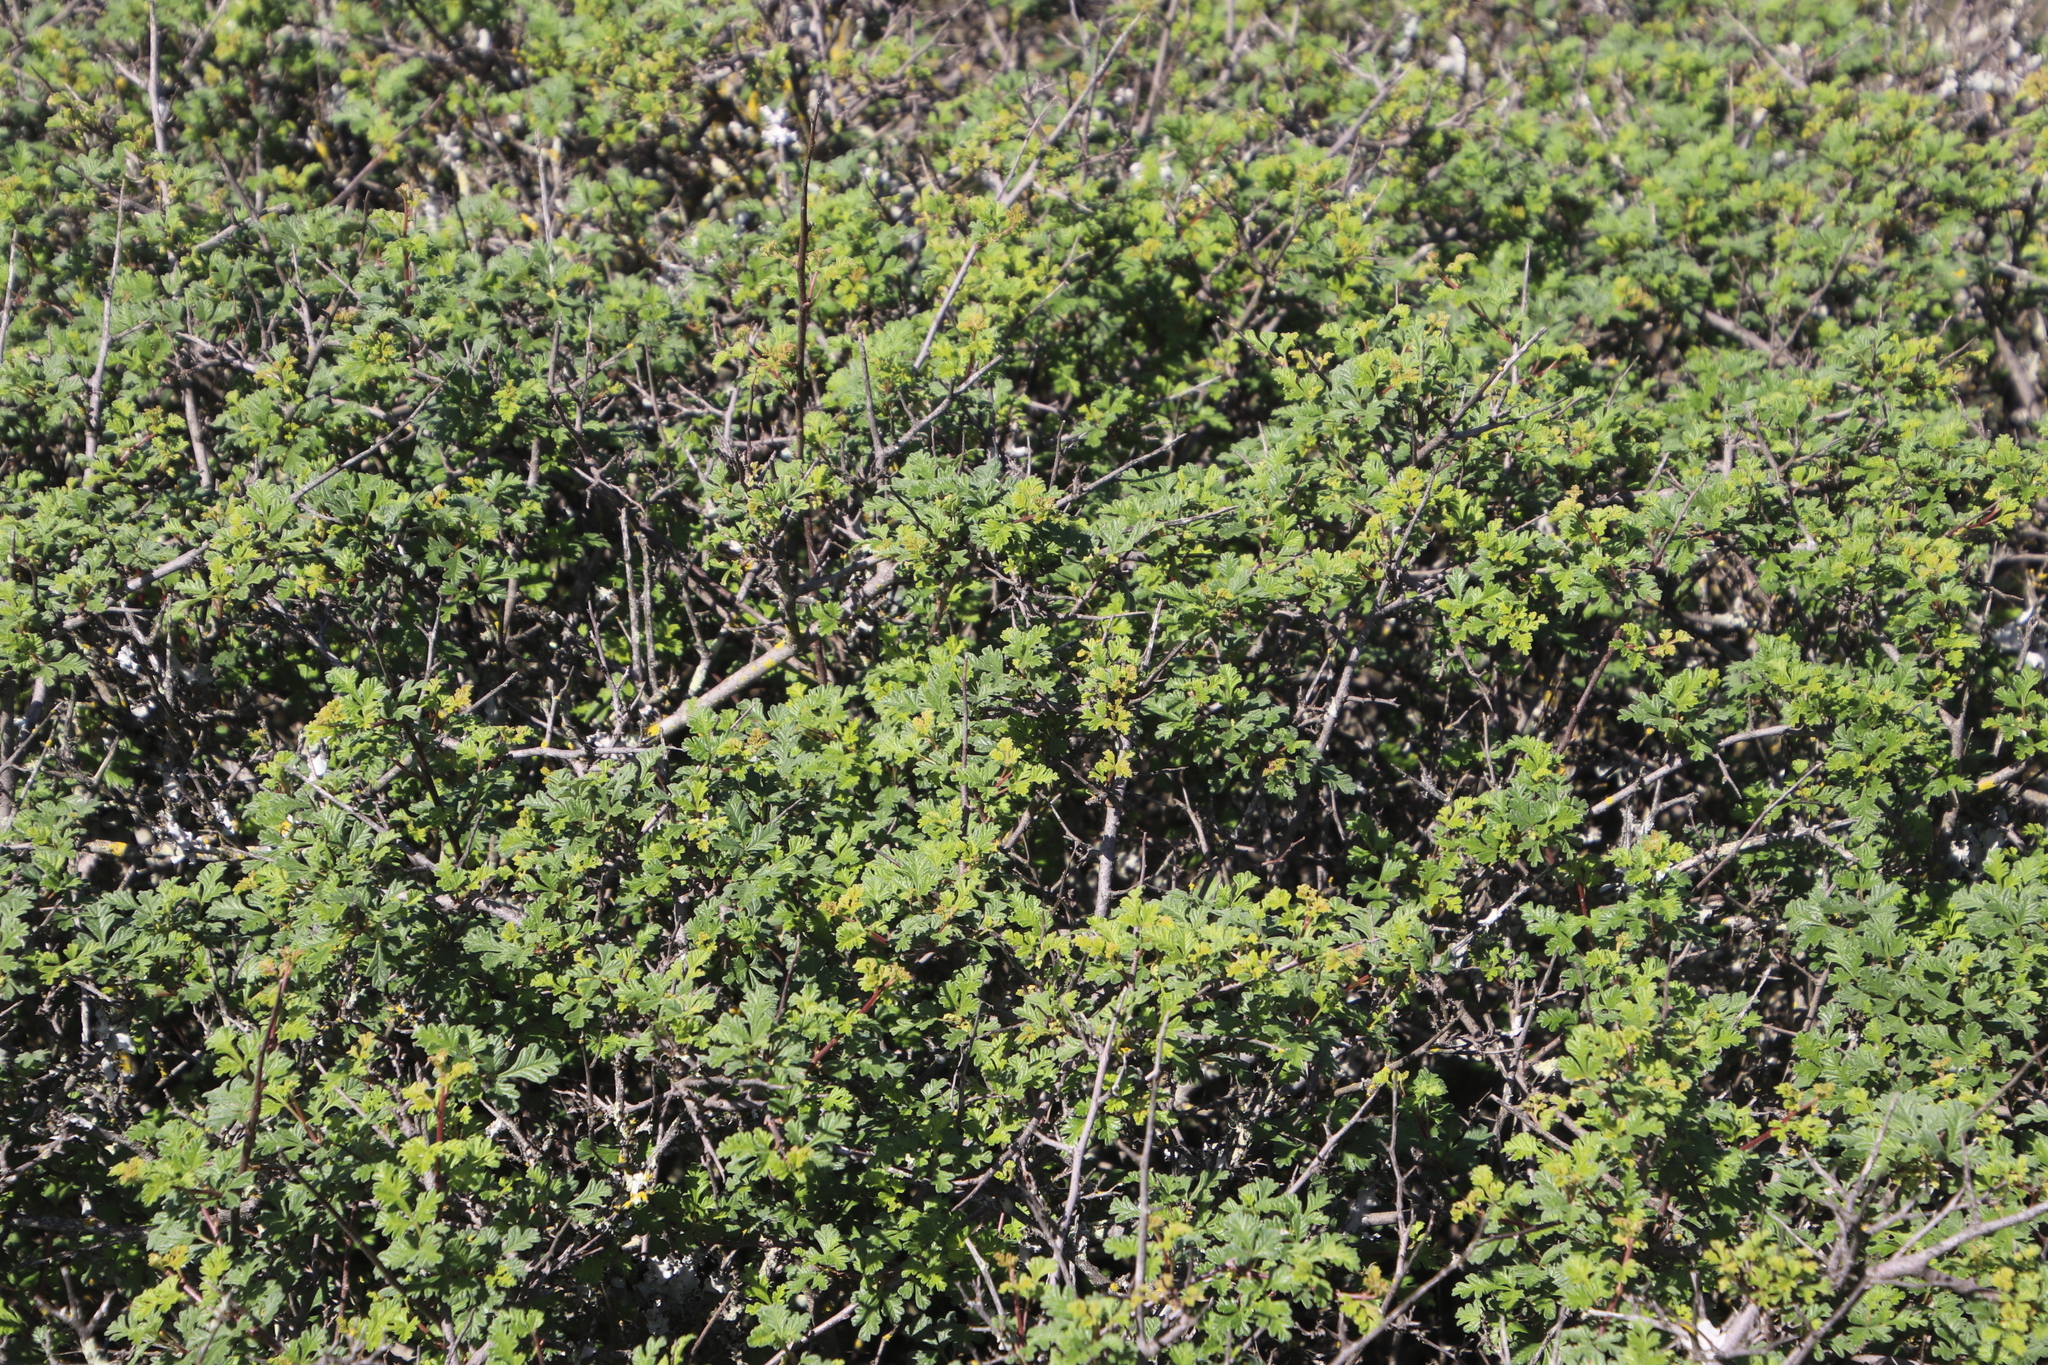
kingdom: Plantae
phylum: Tracheophyta
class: Magnoliopsida
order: Sapindales
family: Anacardiaceae
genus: Searsia
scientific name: Searsia incisa
